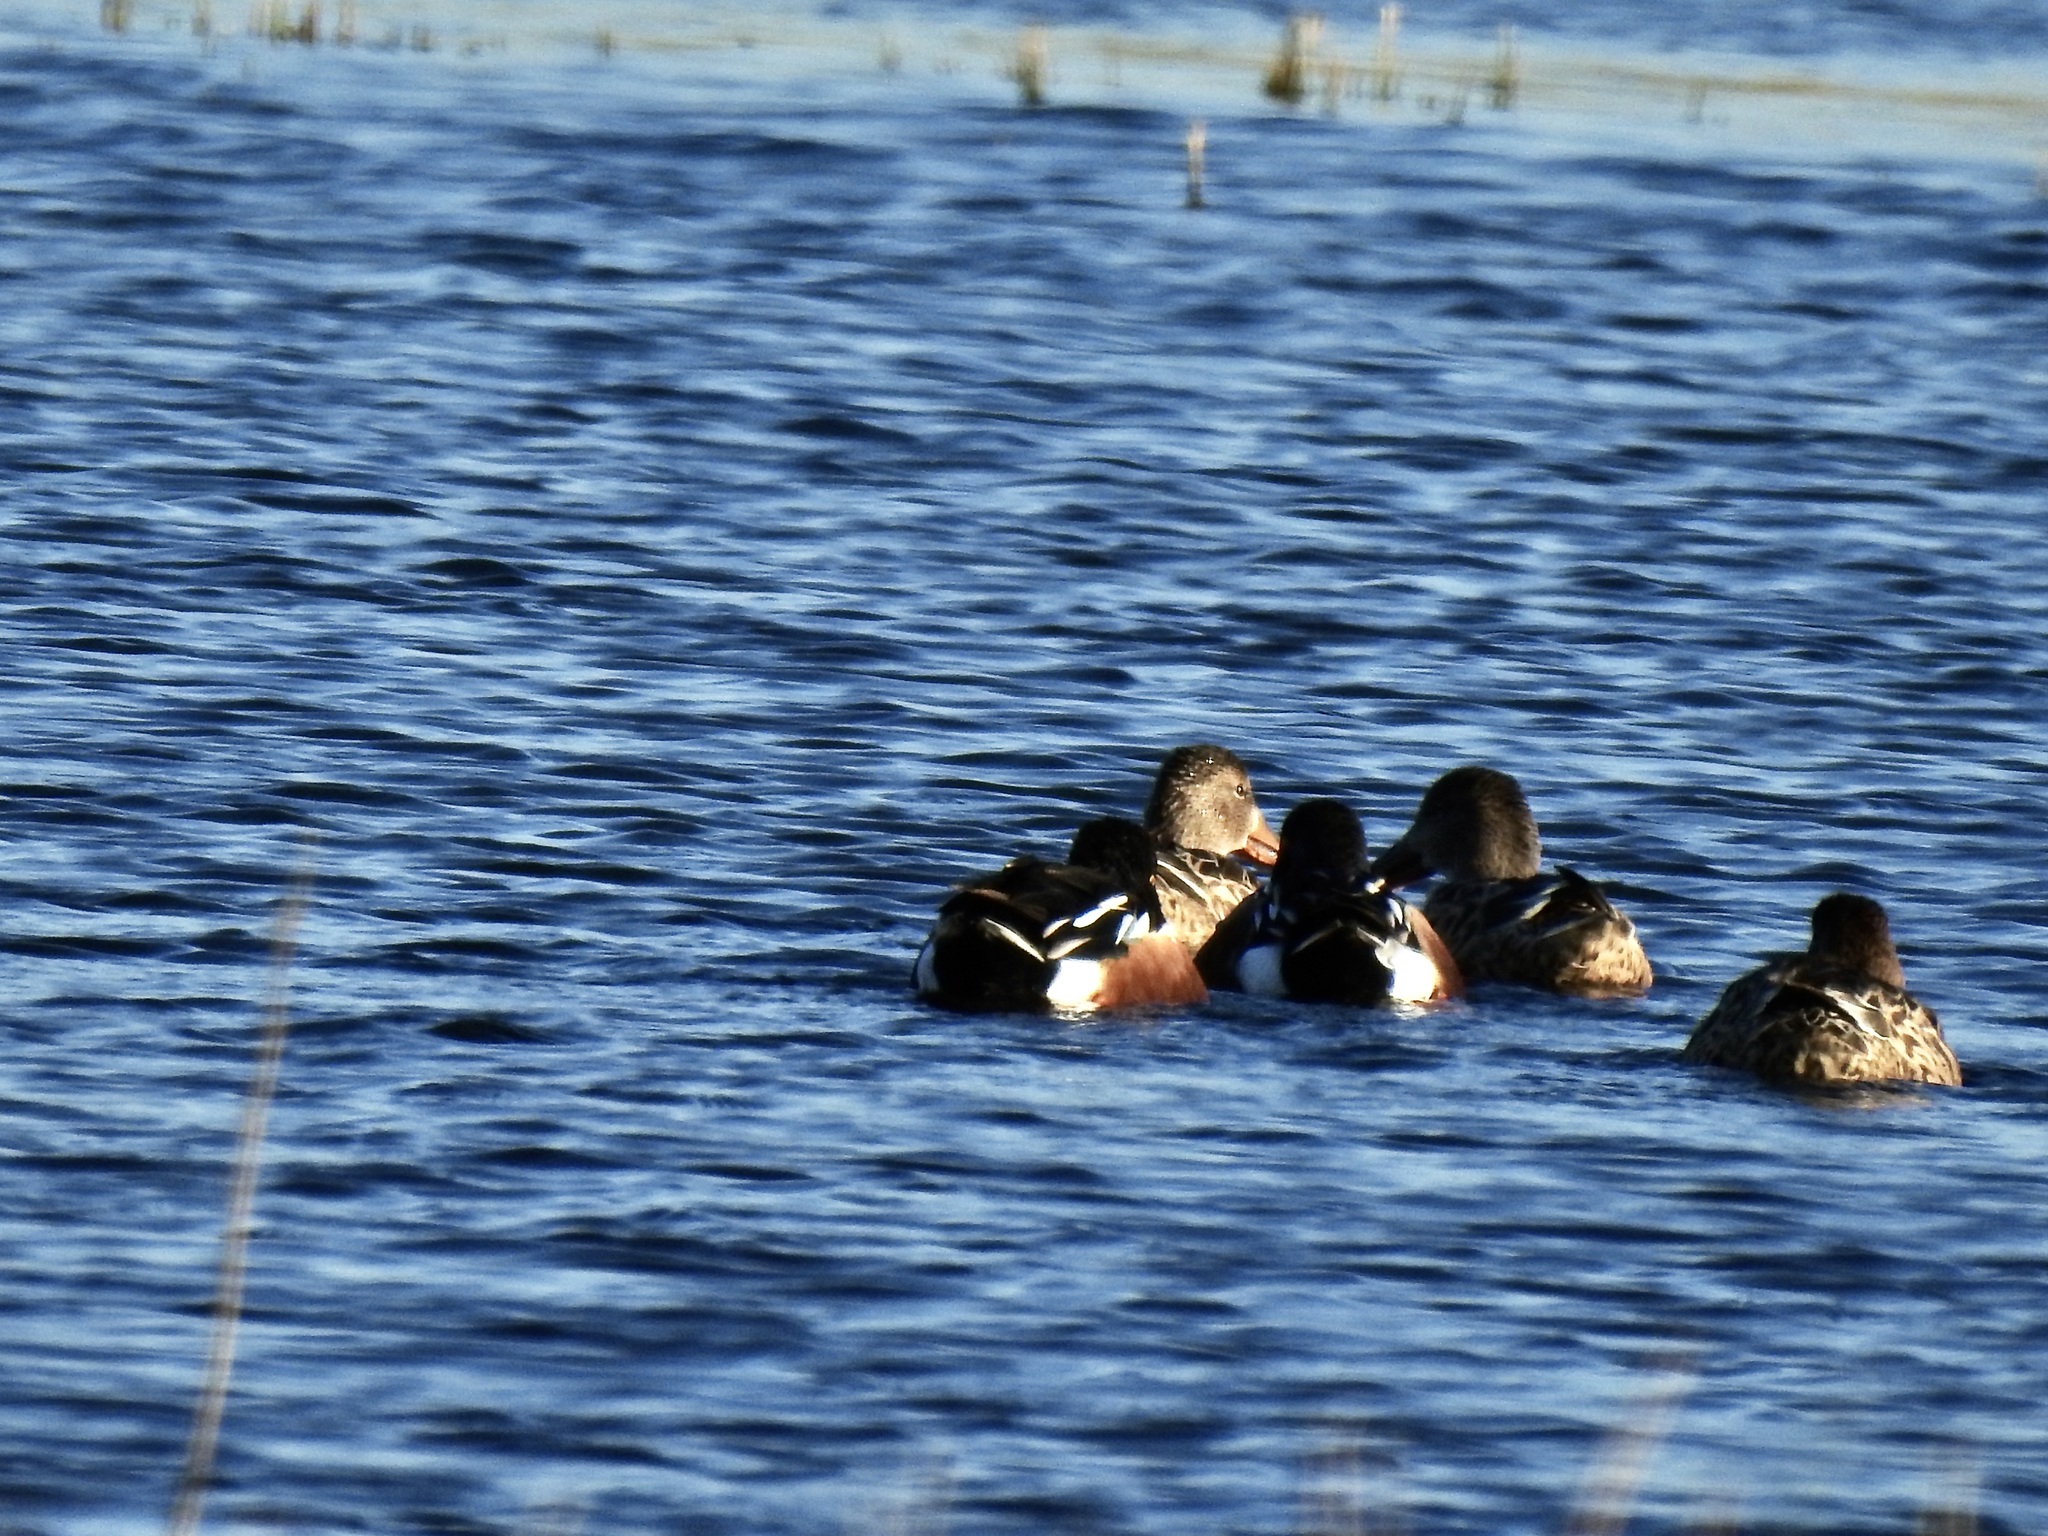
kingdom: Animalia
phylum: Chordata
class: Aves
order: Anseriformes
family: Anatidae
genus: Spatula
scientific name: Spatula clypeata
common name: Northern shoveler
